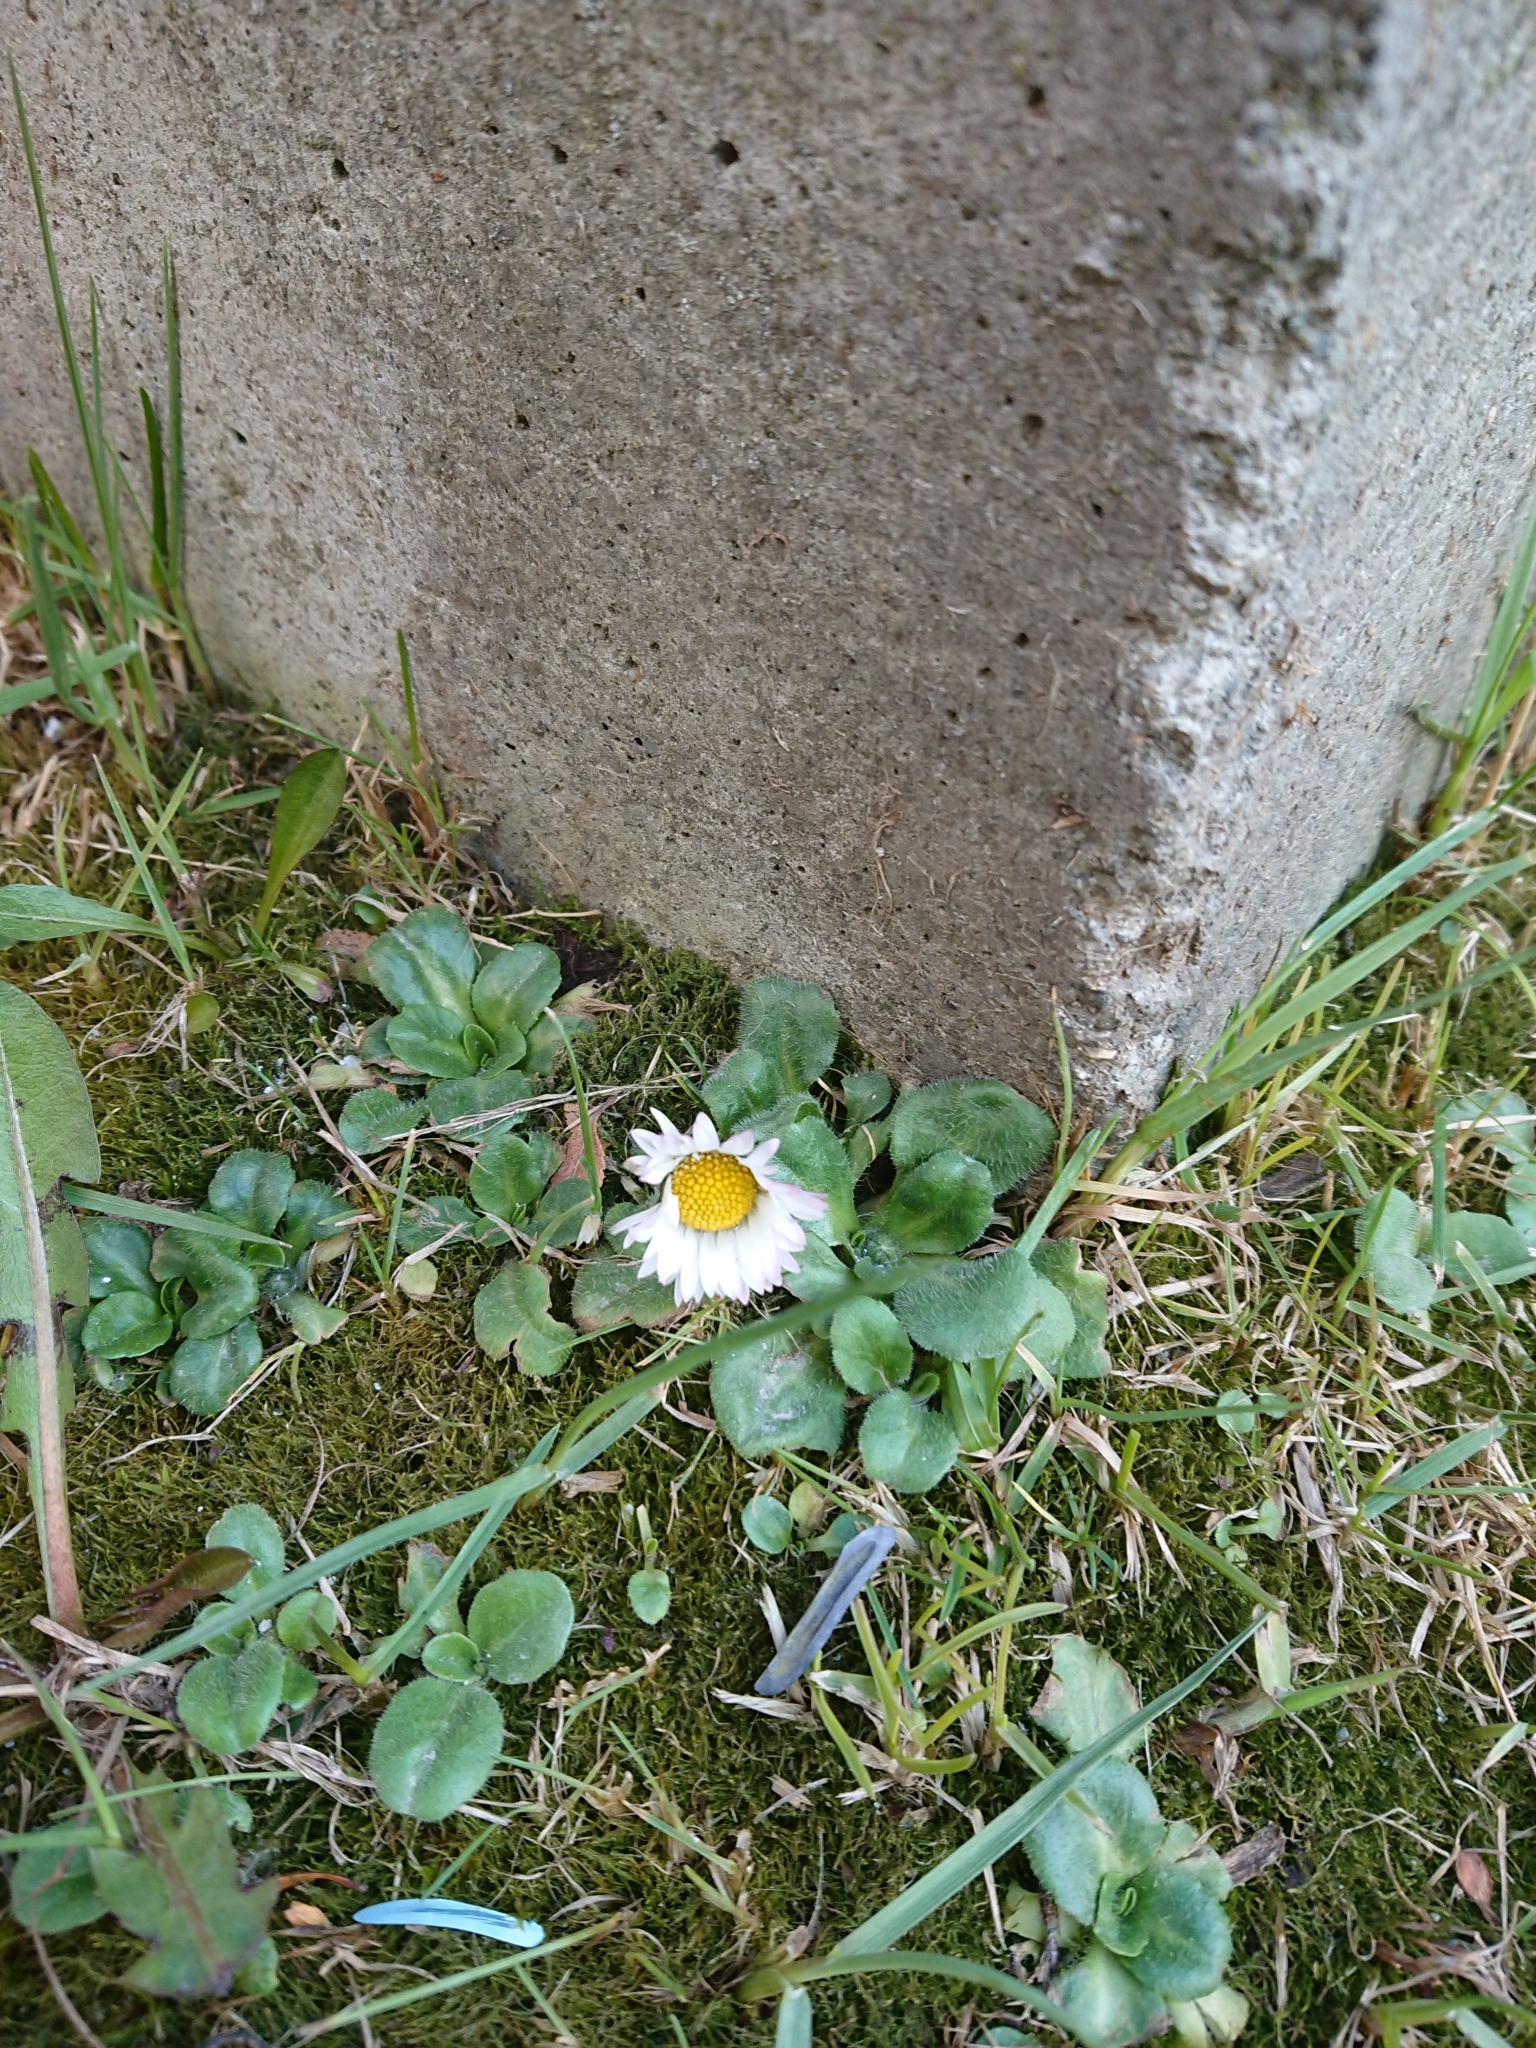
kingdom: Plantae
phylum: Tracheophyta
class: Magnoliopsida
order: Asterales
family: Asteraceae
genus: Bellis
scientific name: Bellis perennis
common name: Lawndaisy
